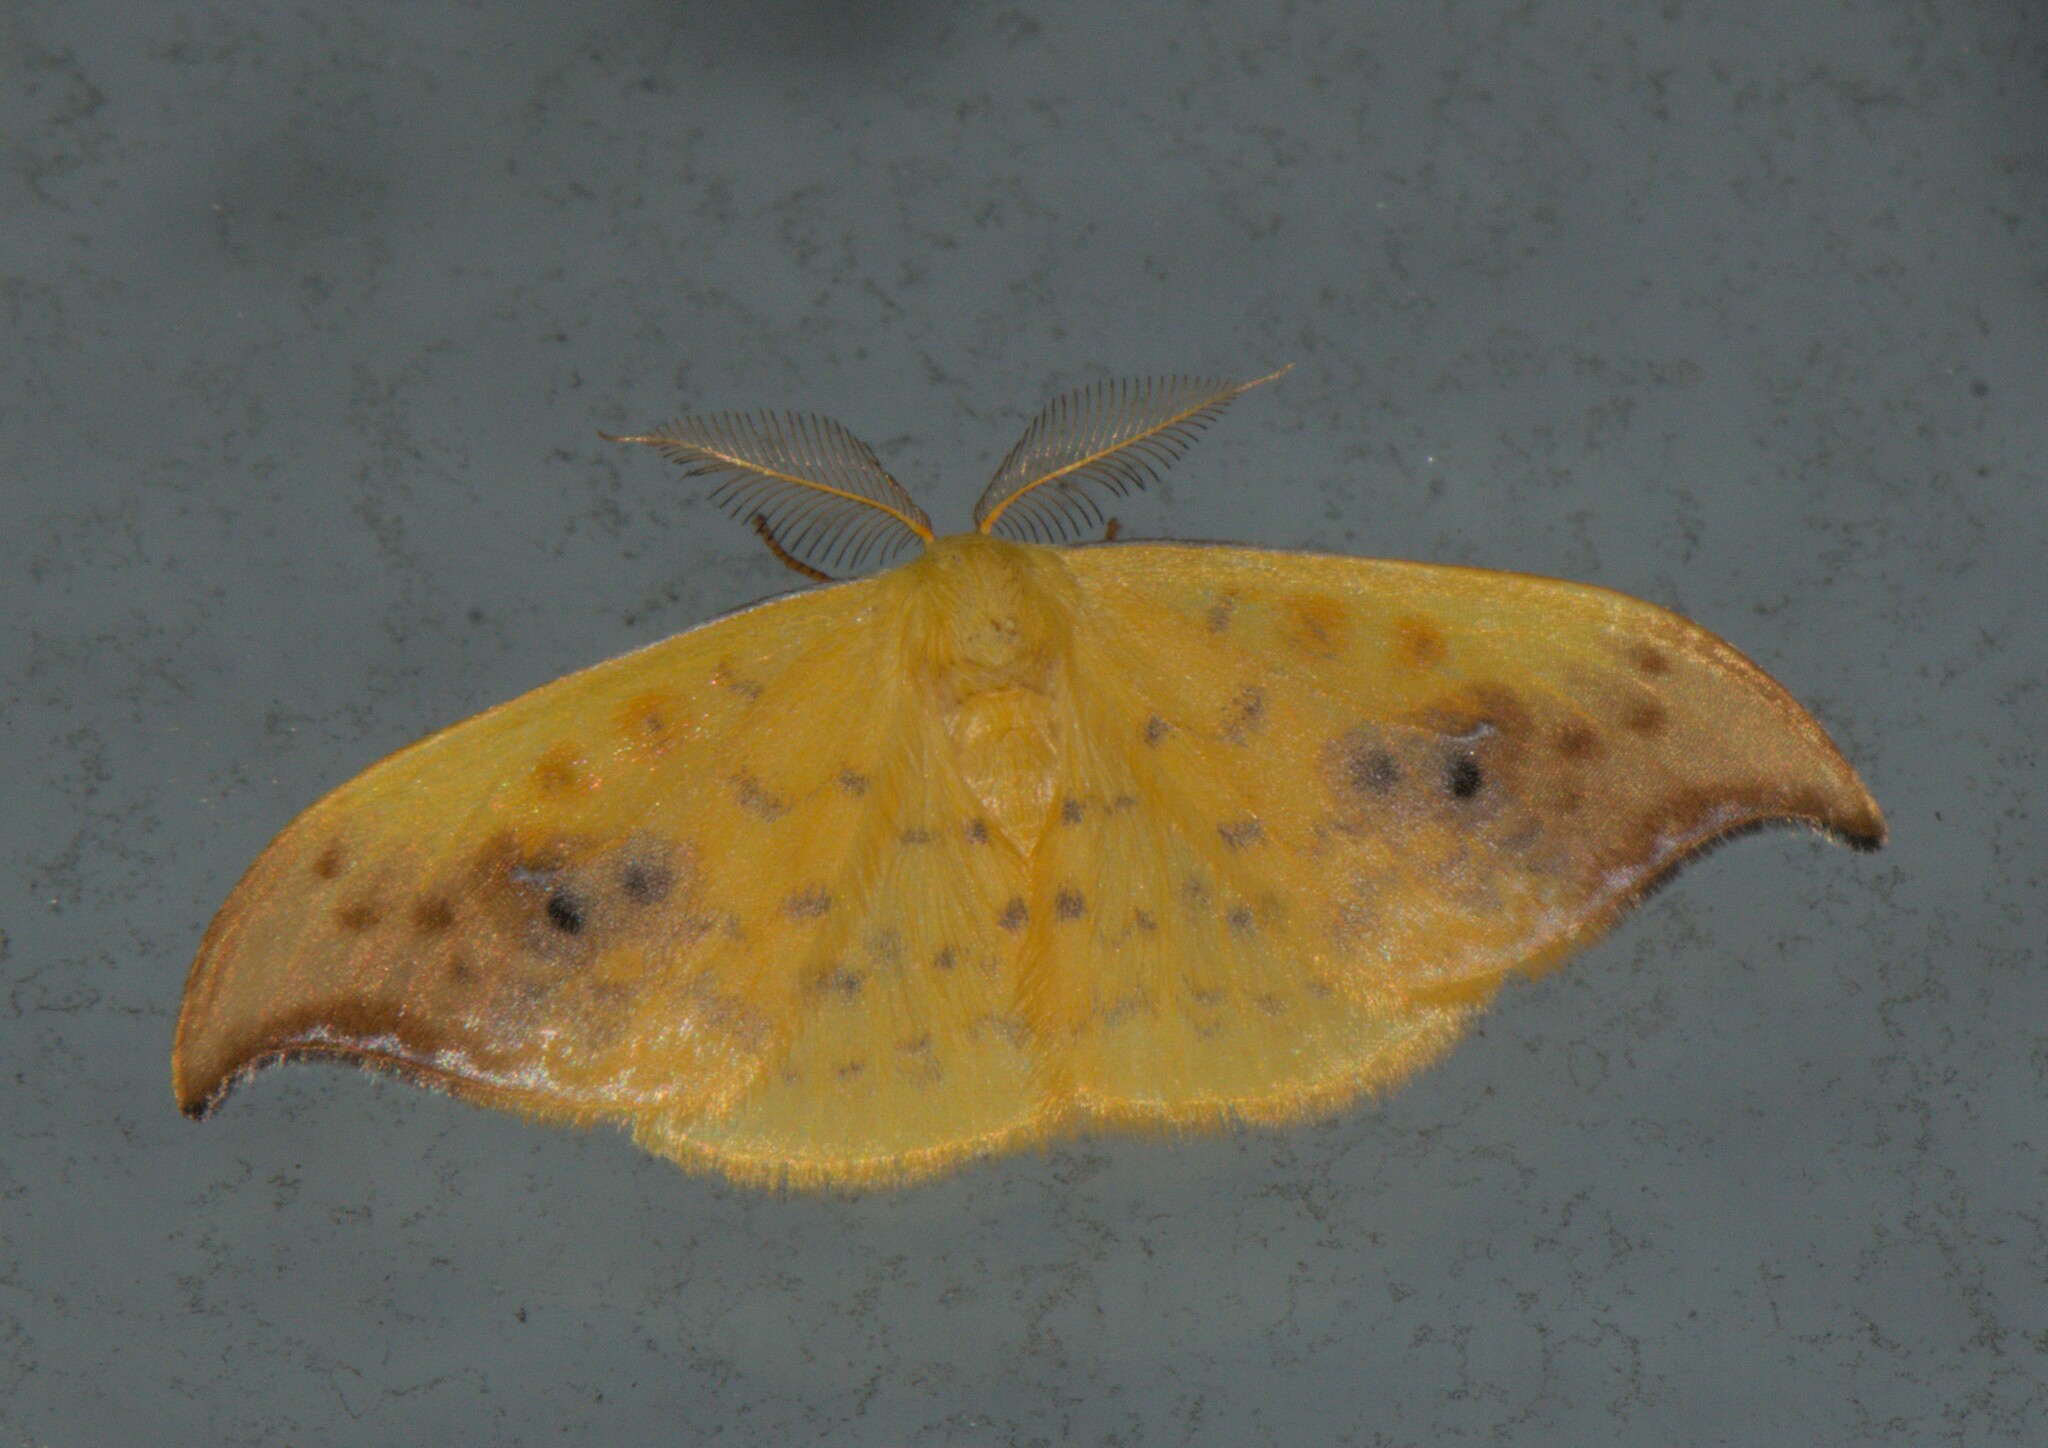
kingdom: Animalia
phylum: Arthropoda
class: Insecta
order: Lepidoptera
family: Drepanidae
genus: Tridrepana
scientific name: Tridrepana sadana
